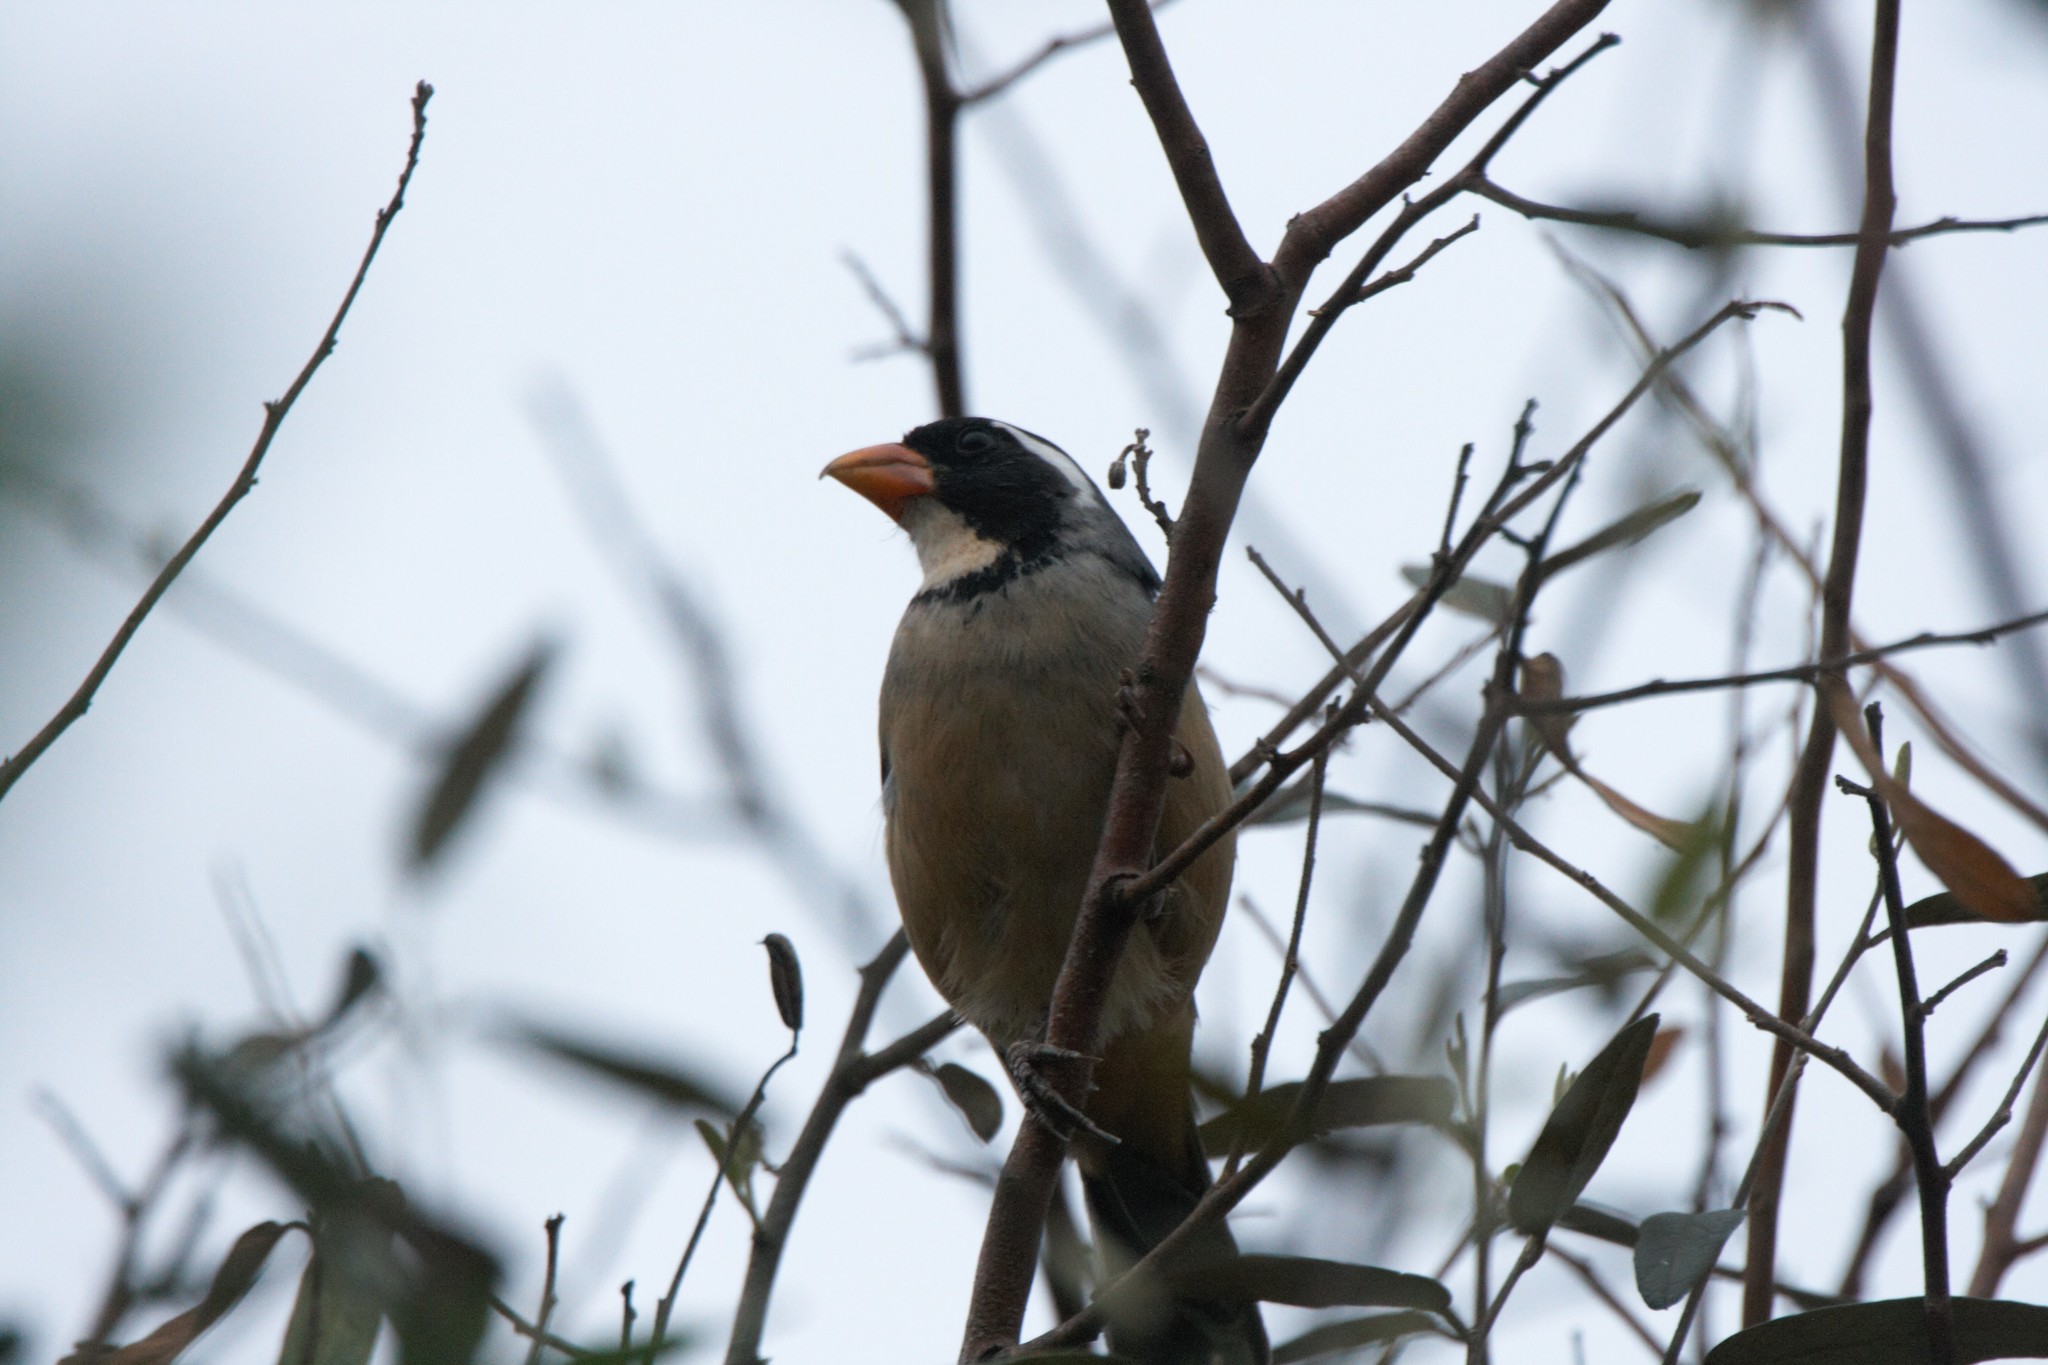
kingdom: Animalia
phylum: Chordata
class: Aves
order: Passeriformes
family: Thraupidae
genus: Saltator
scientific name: Saltator aurantiirostris
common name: Golden-billed saltator
